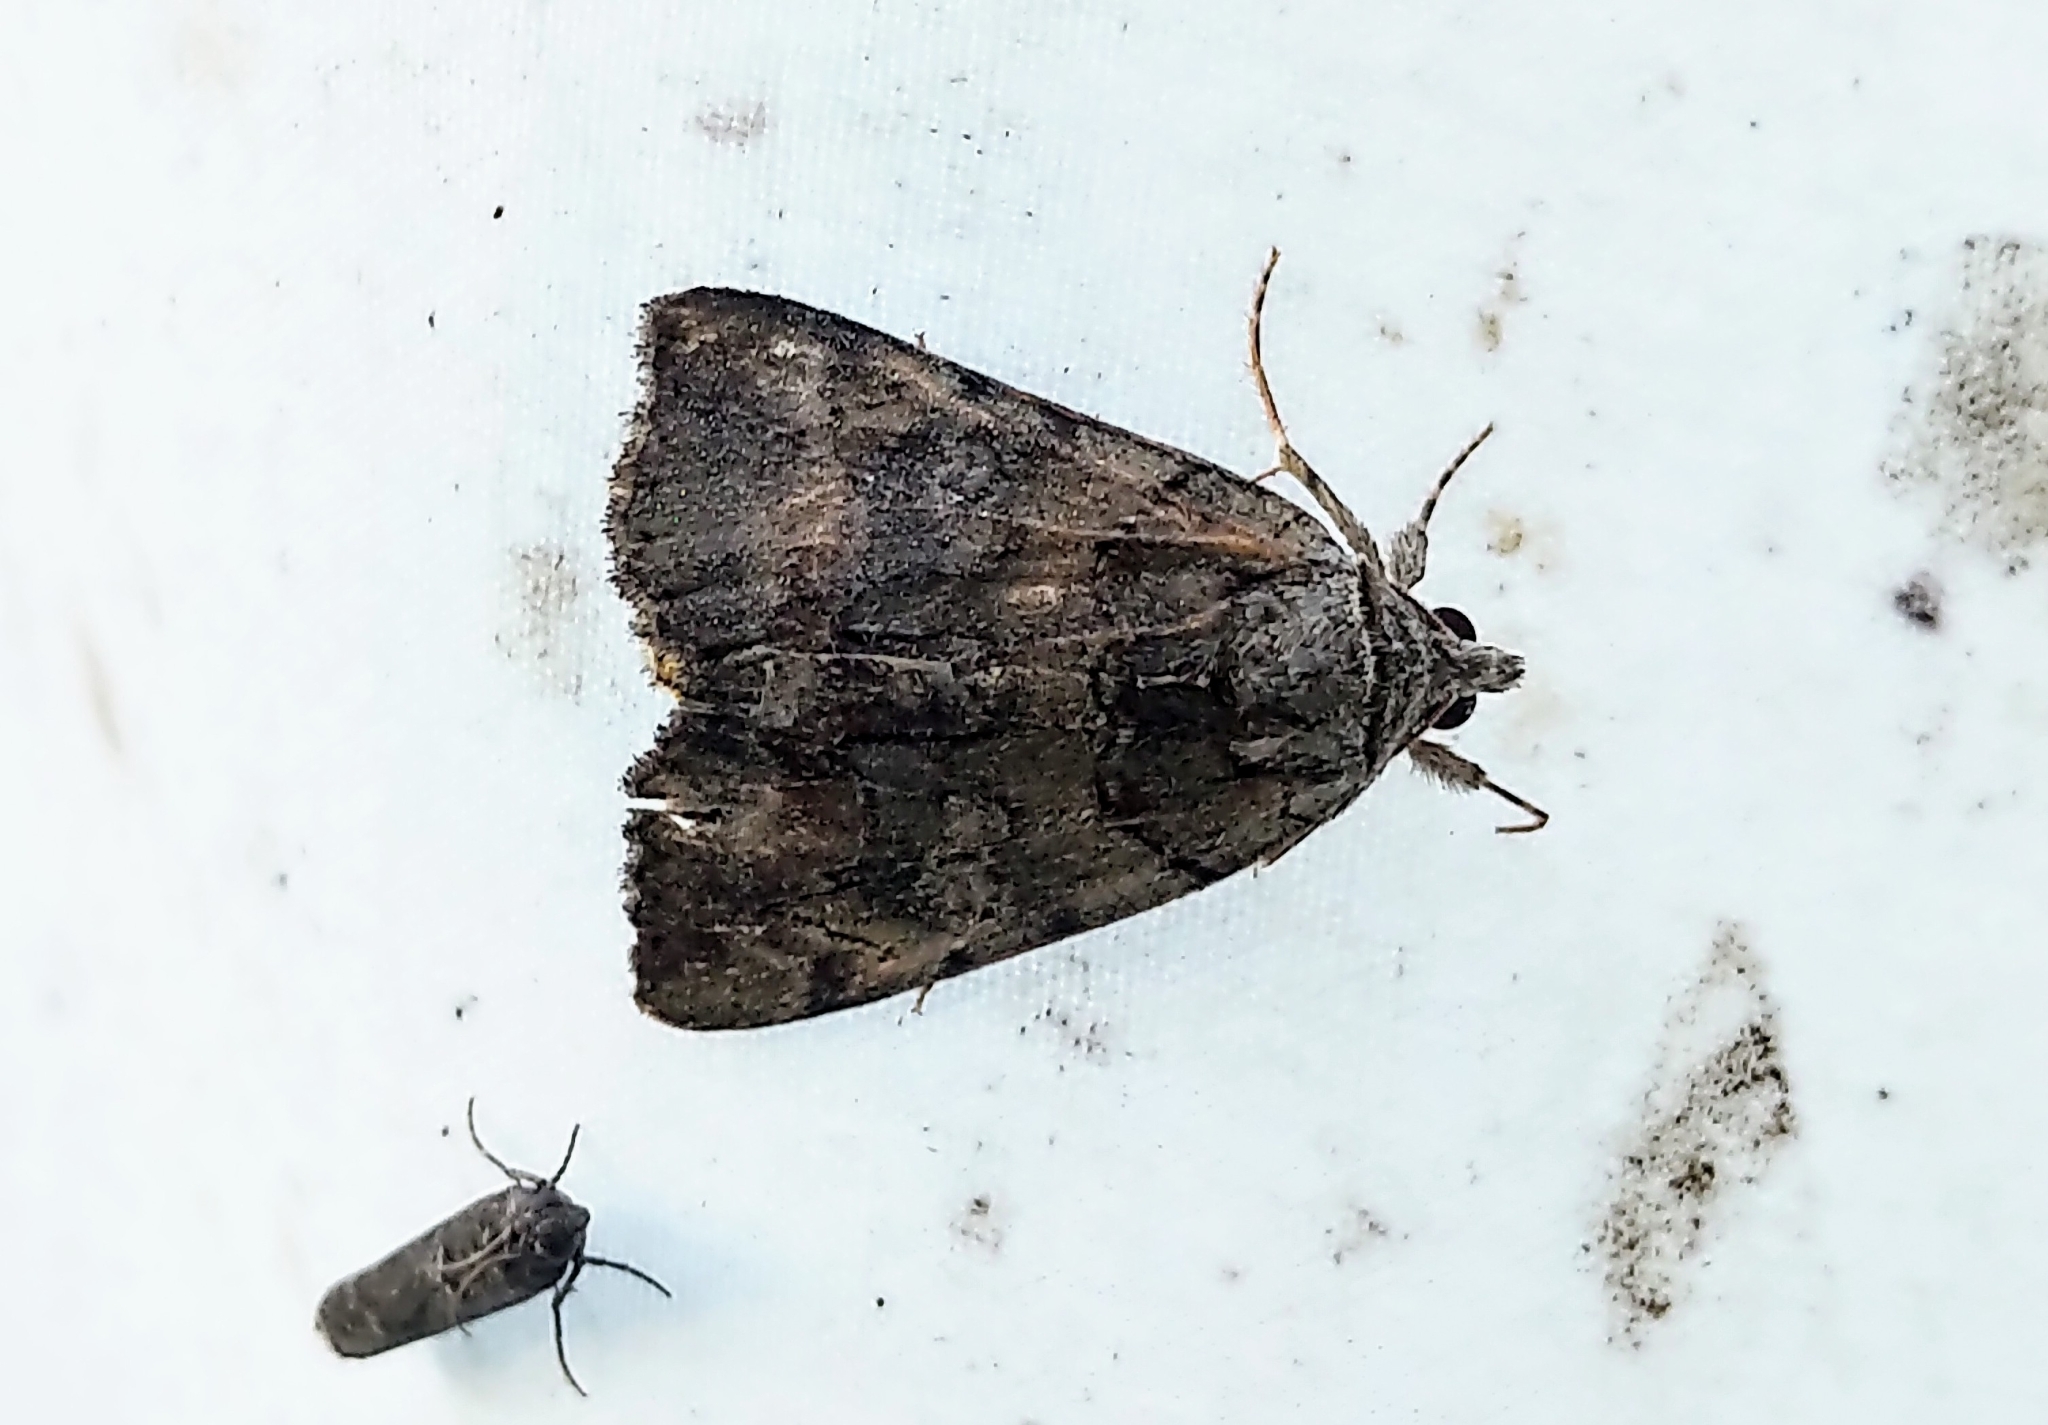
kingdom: Animalia
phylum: Arthropoda
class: Insecta
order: Lepidoptera
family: Erebidae
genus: Catocala
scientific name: Catocala praeclara
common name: Praeclara underwing
